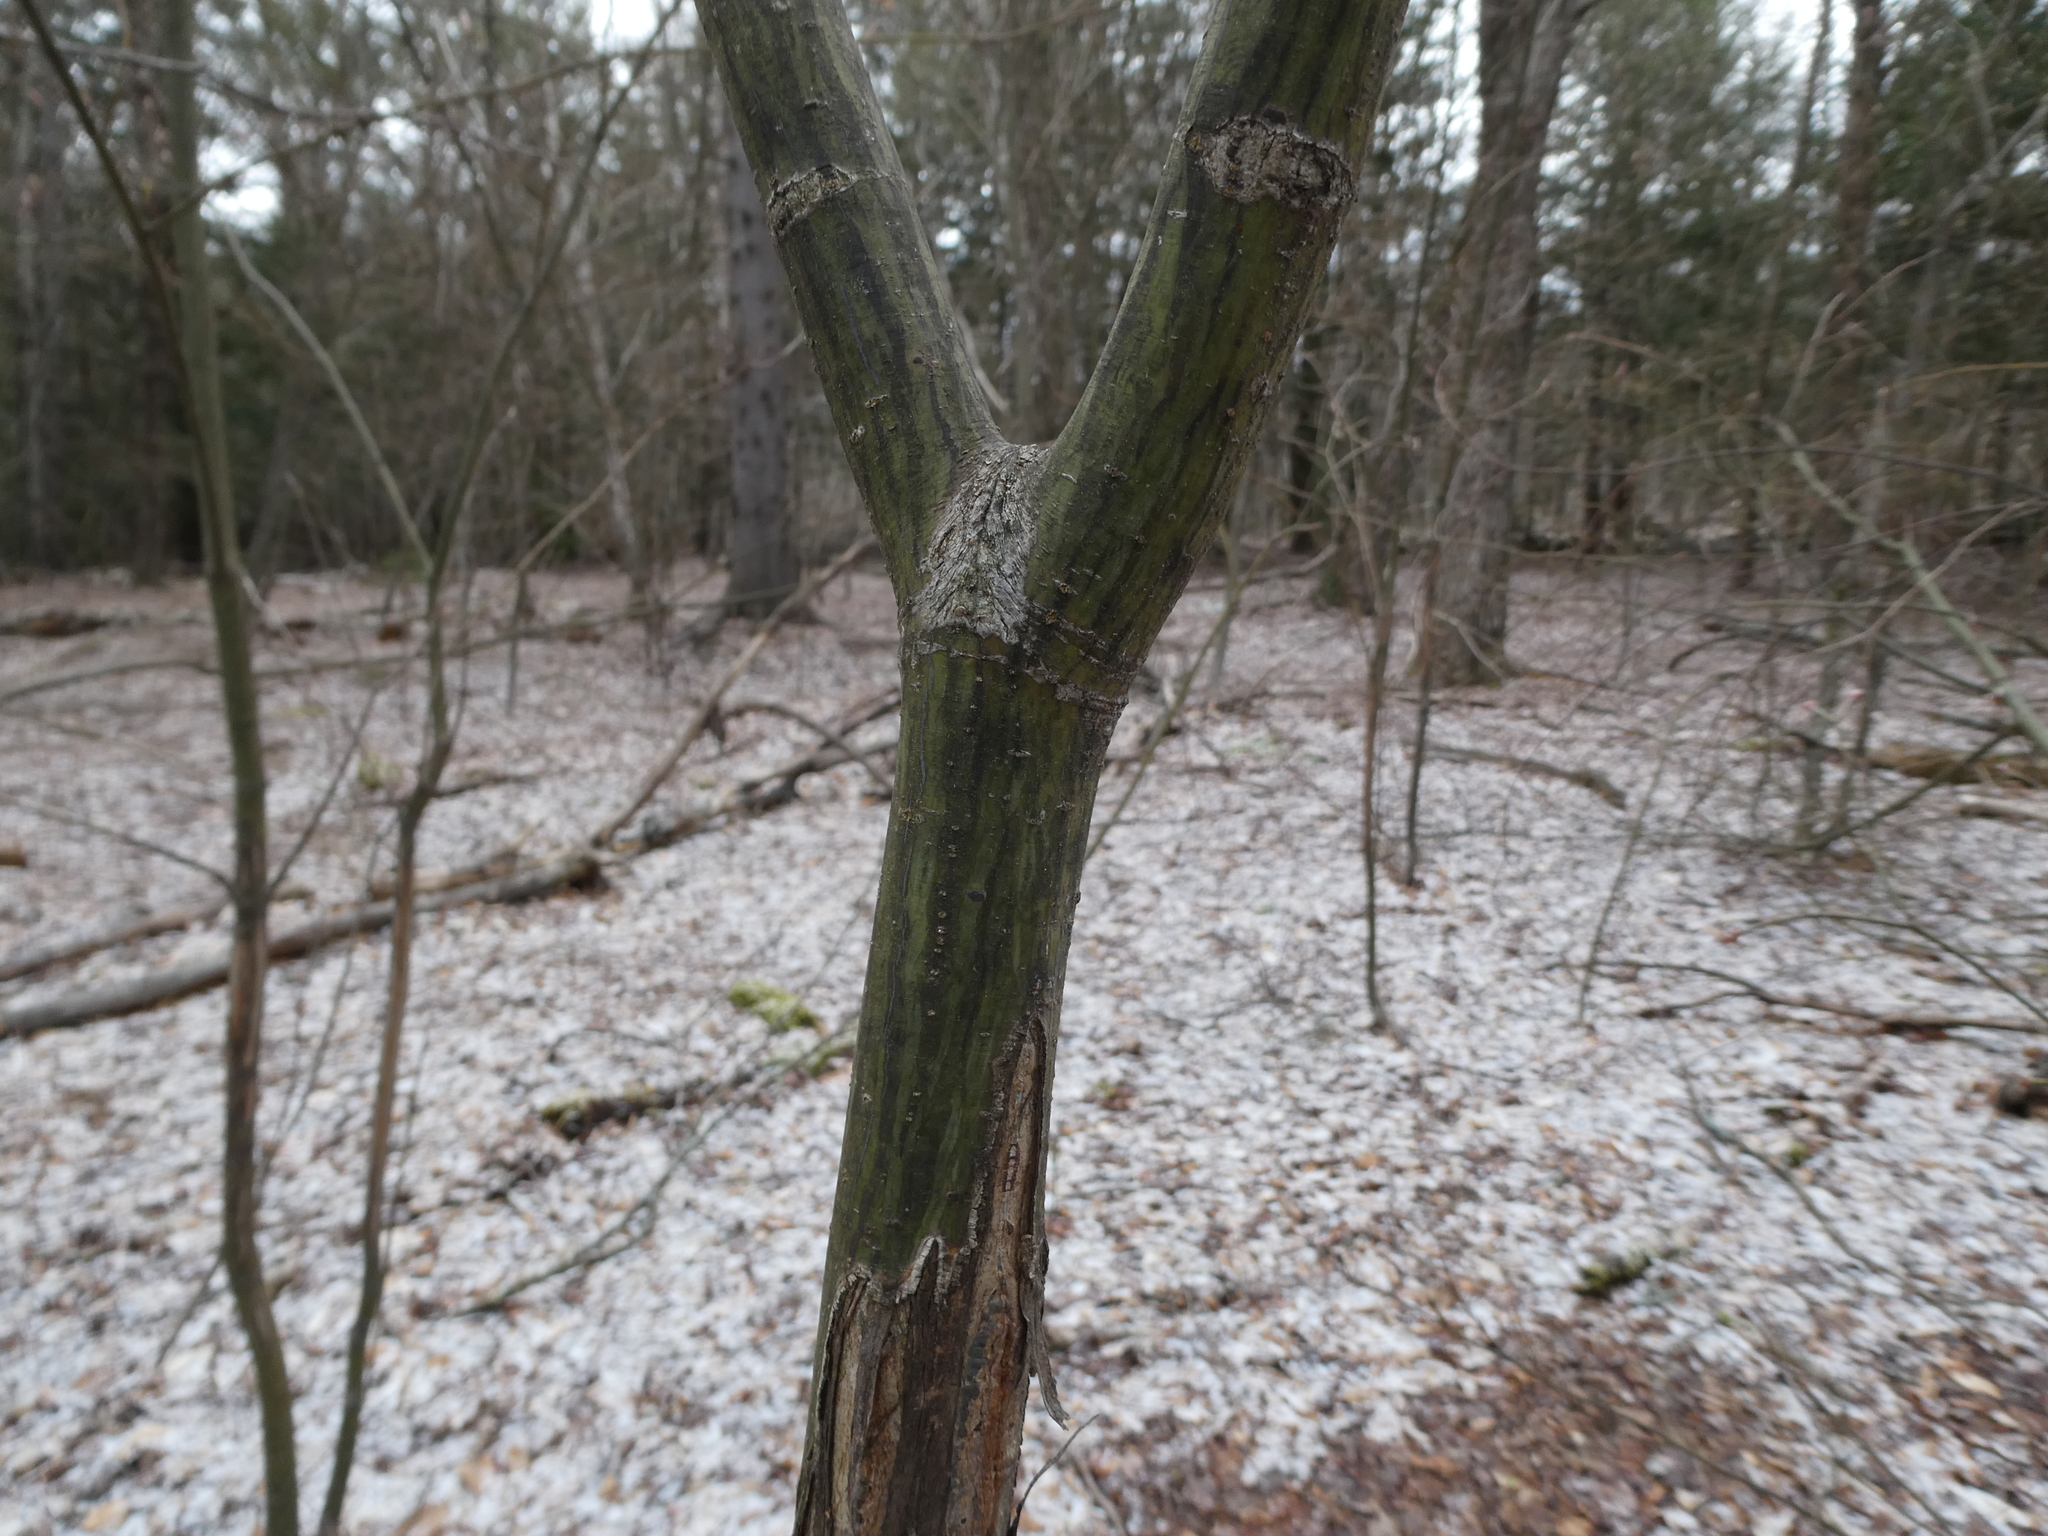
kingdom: Plantae
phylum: Tracheophyta
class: Magnoliopsida
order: Sapindales
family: Sapindaceae
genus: Acer
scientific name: Acer pensylvanicum
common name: Moosewood
